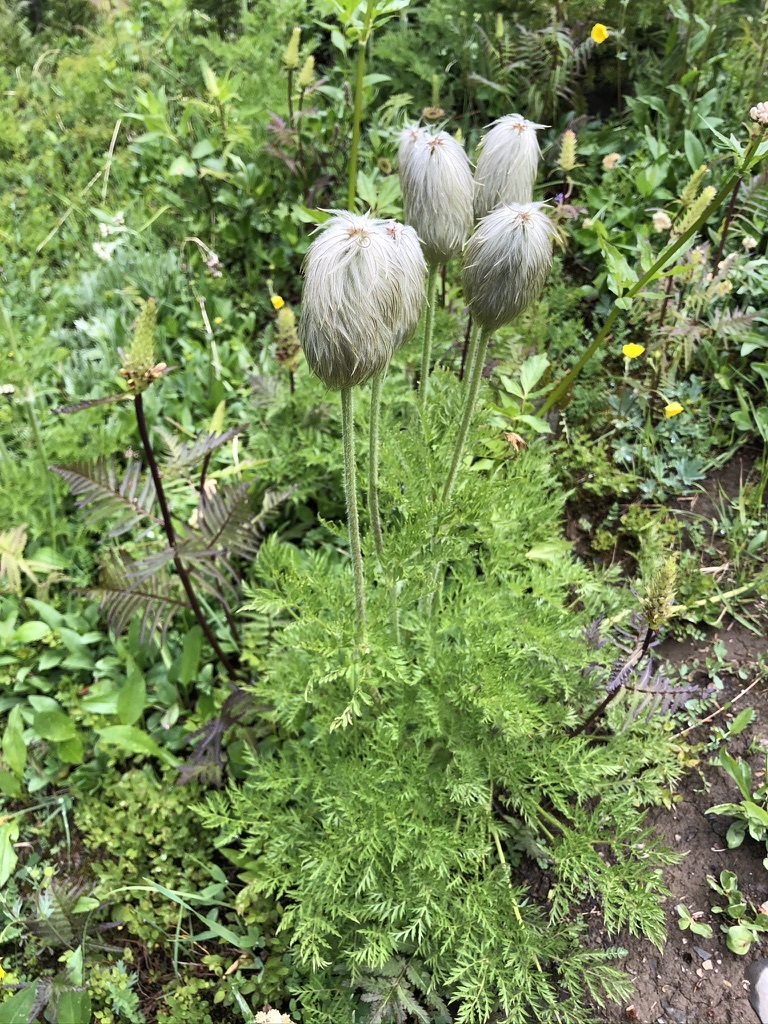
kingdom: Plantae
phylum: Tracheophyta
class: Magnoliopsida
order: Ranunculales
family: Ranunculaceae
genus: Pulsatilla
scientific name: Pulsatilla occidentalis
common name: Mountain pasqueflower
